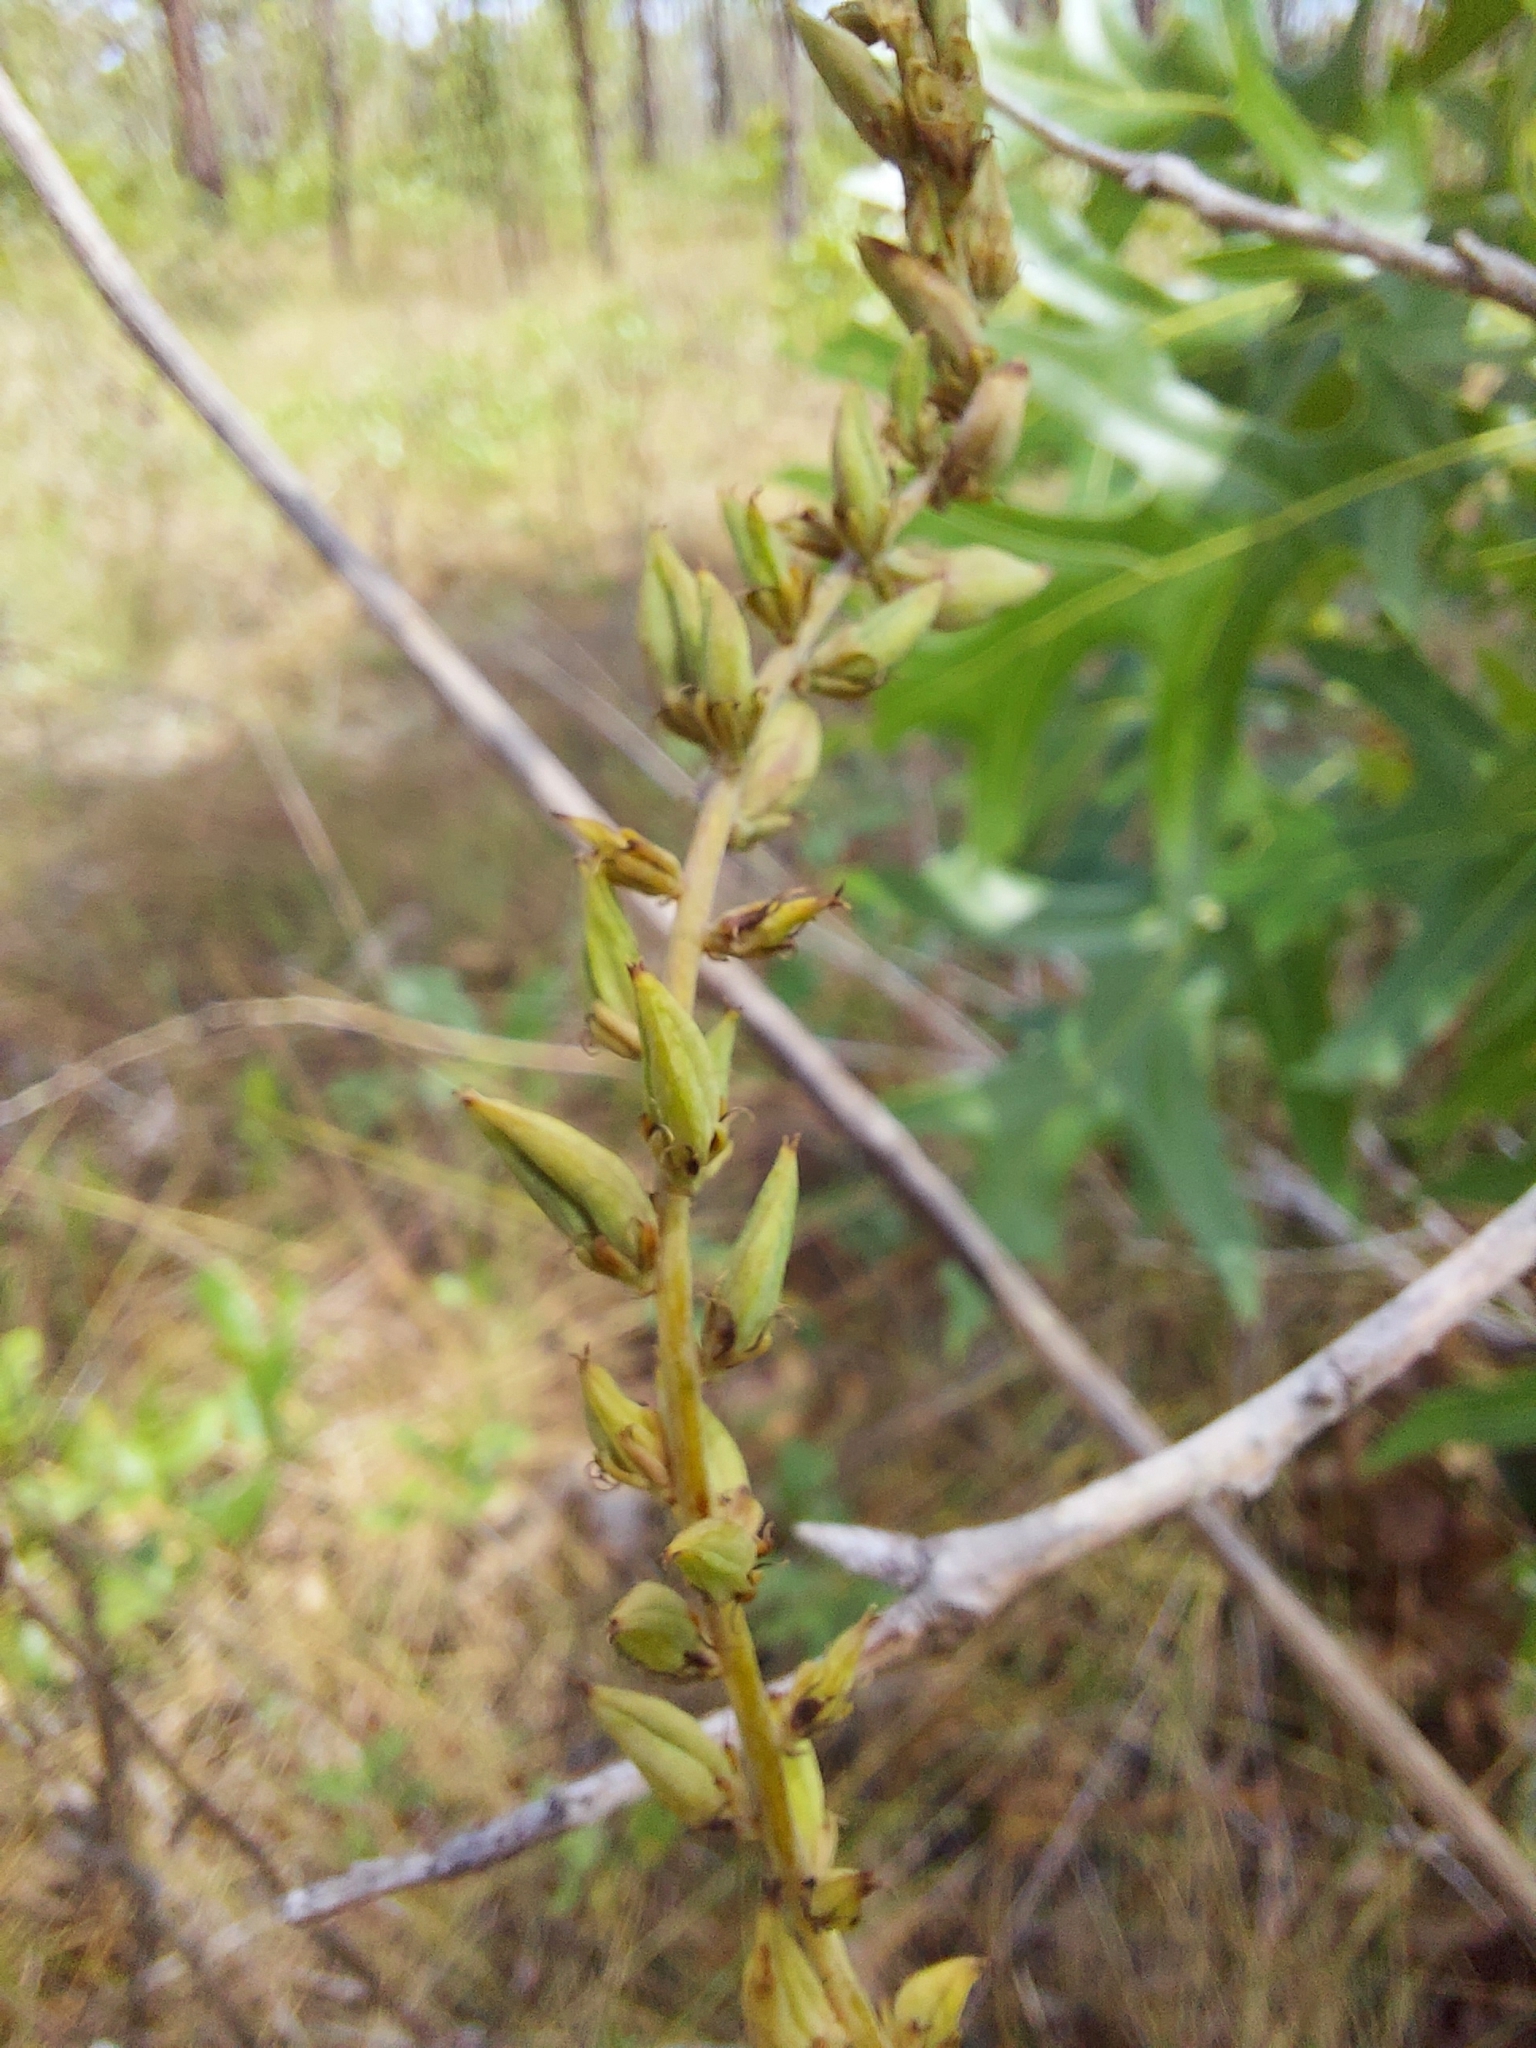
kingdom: Plantae
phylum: Tracheophyta
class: Liliopsida
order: Liliales
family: Melanthiaceae
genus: Schoenocaulon
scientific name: Schoenocaulon dubium
